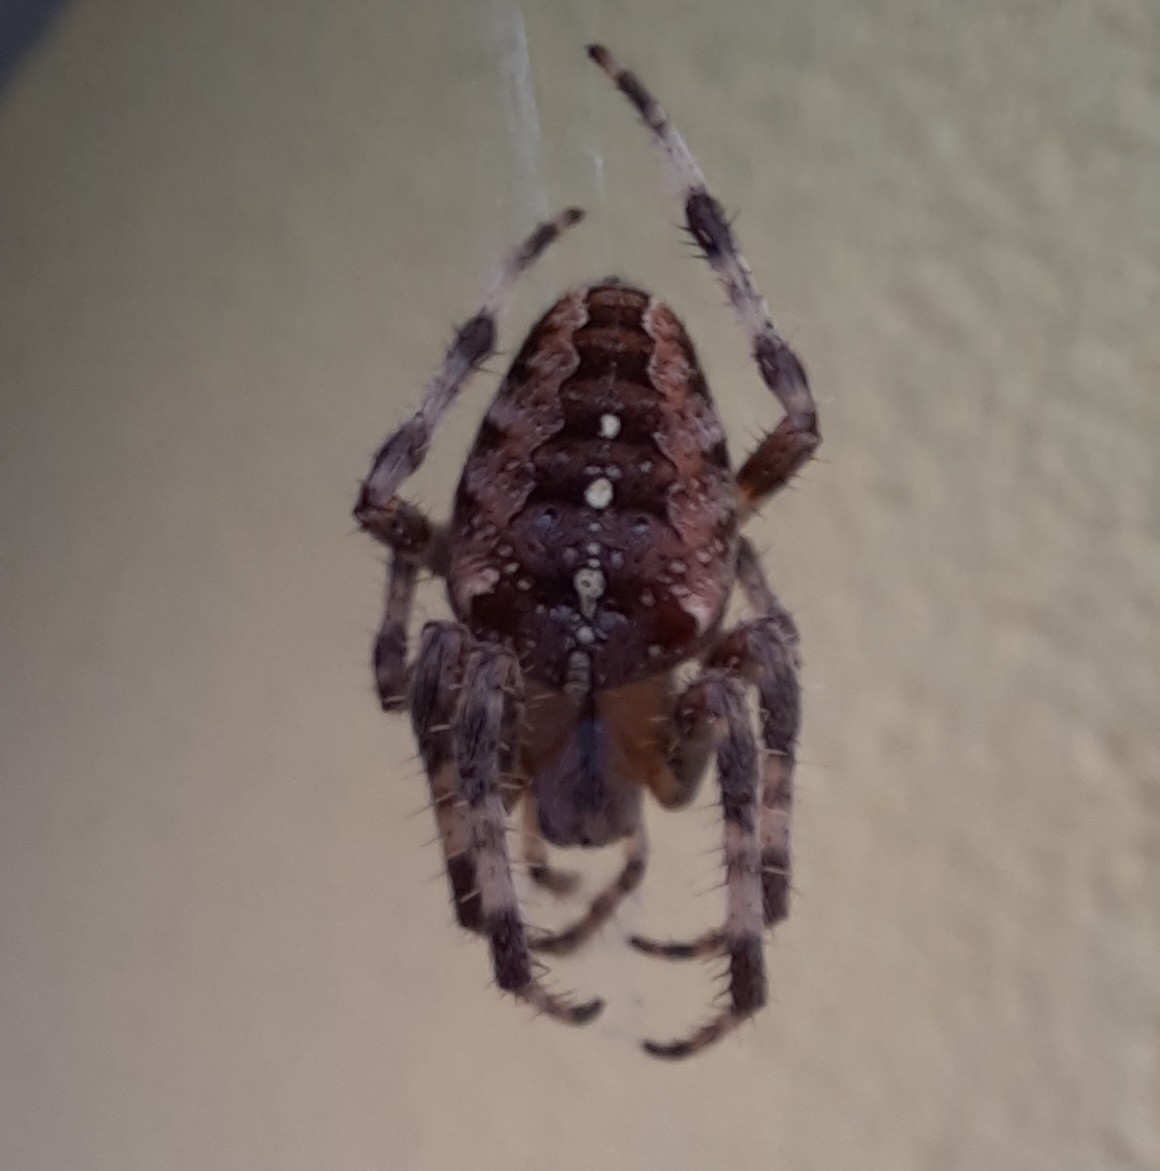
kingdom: Animalia
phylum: Arthropoda
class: Arachnida
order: Araneae
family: Araneidae
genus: Araneus
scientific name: Araneus diadematus
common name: Cross orbweaver
